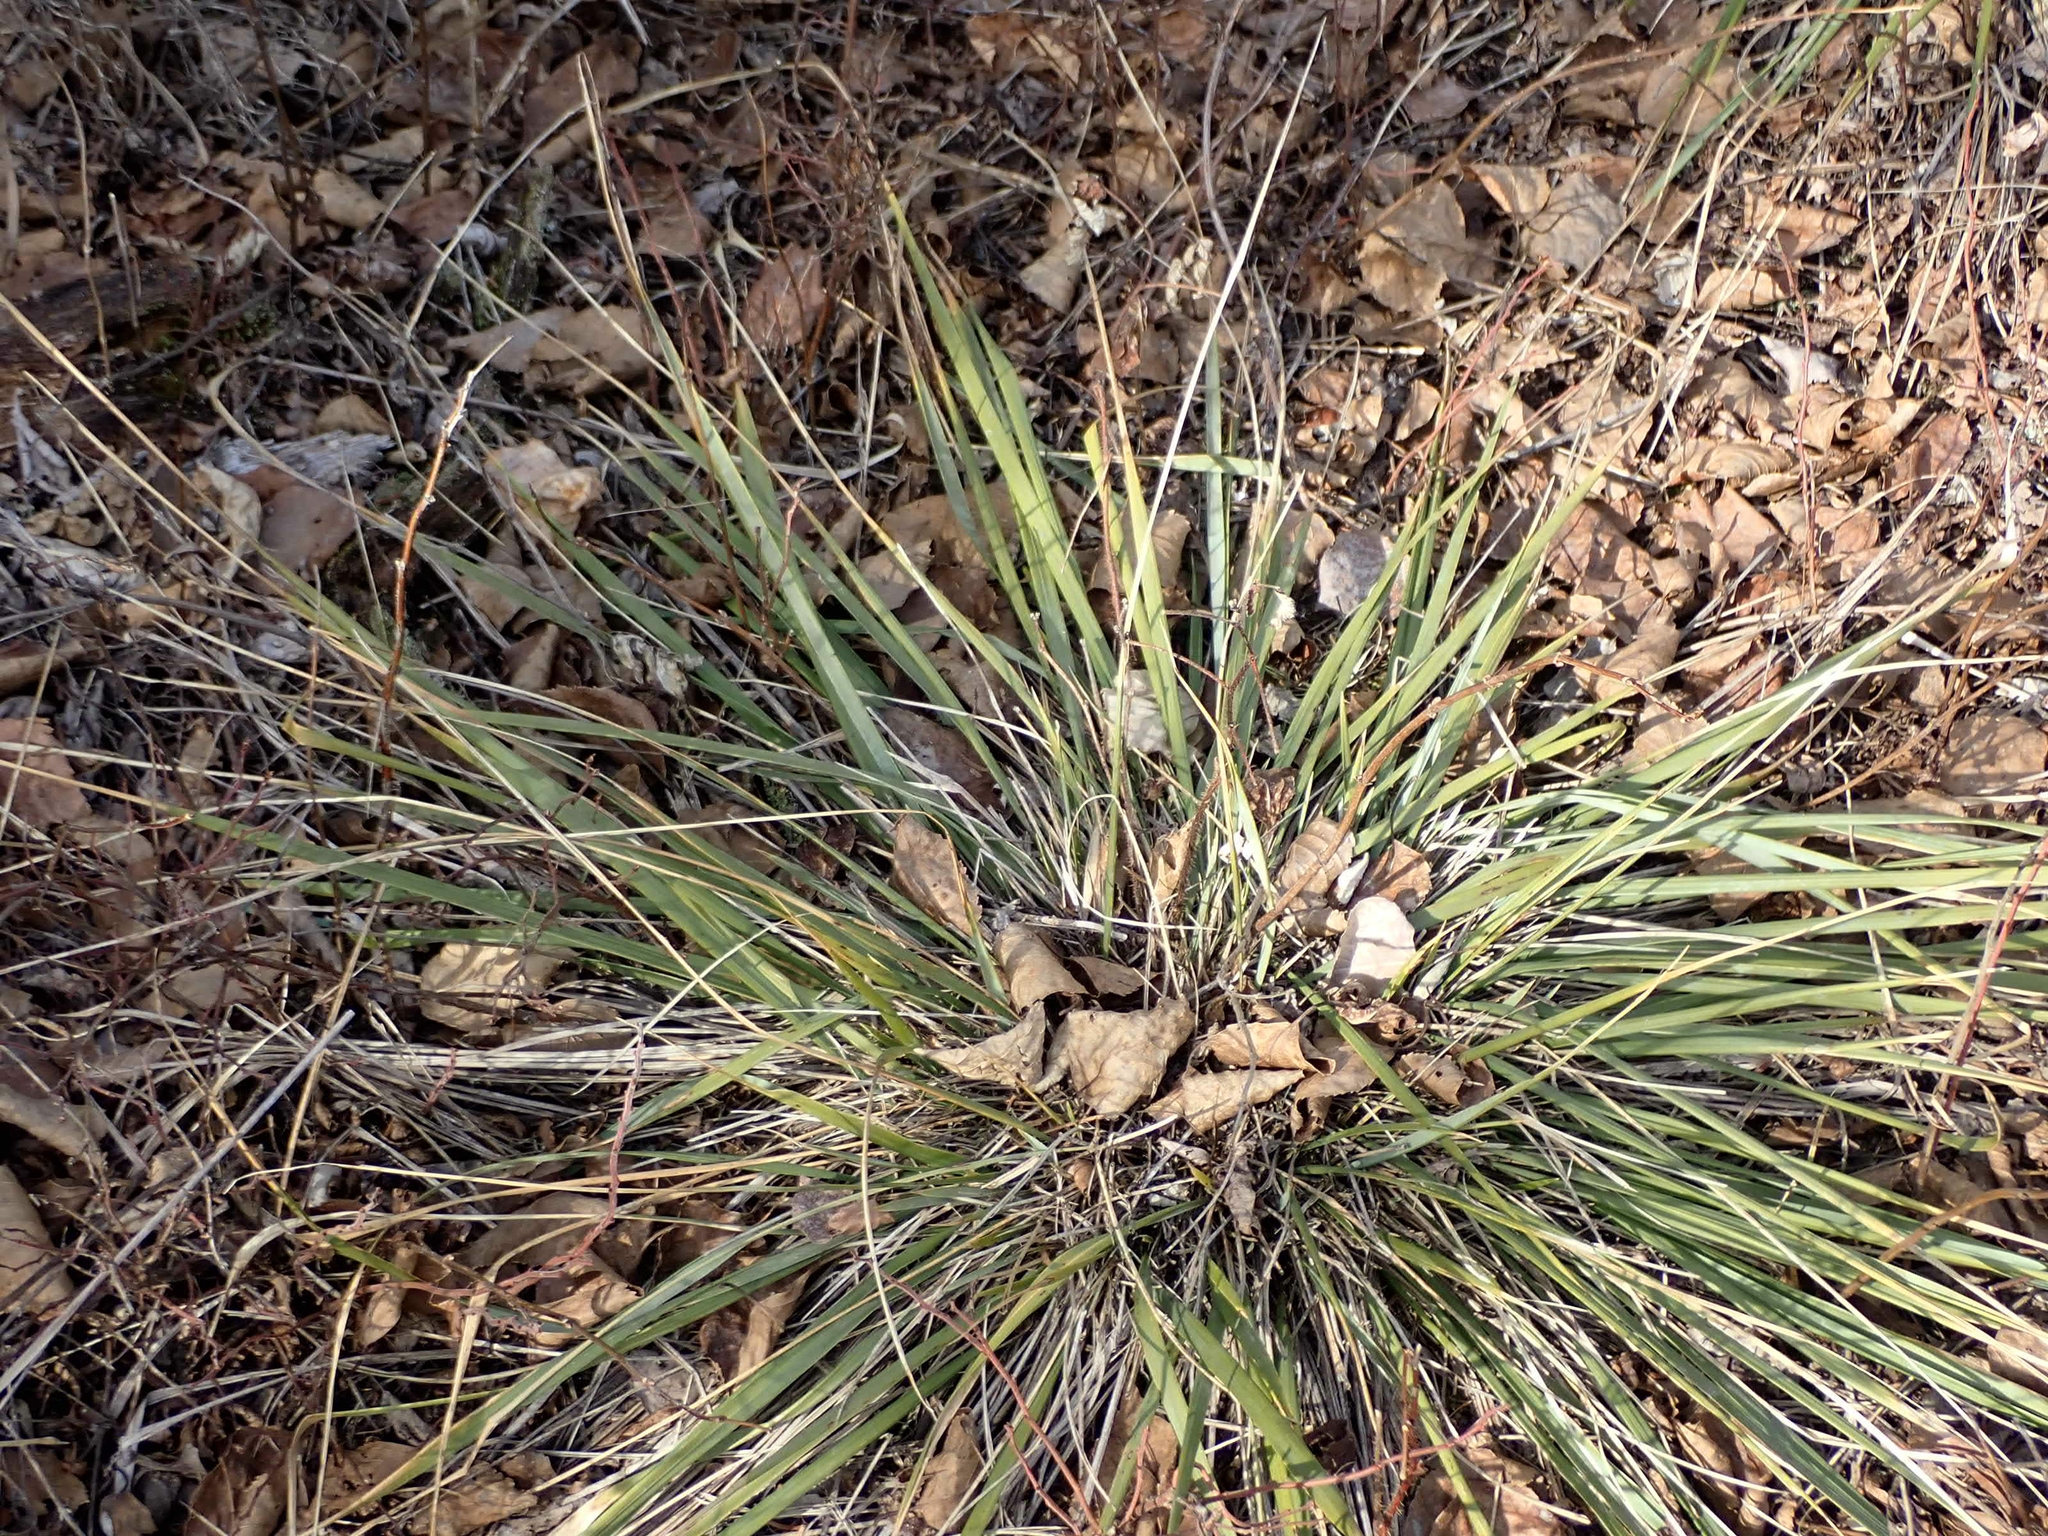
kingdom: Plantae
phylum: Tracheophyta
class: Liliopsida
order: Poales
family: Poaceae
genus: Oryzopsis
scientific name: Oryzopsis asperifolia
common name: Rough-leaved mountain rice
